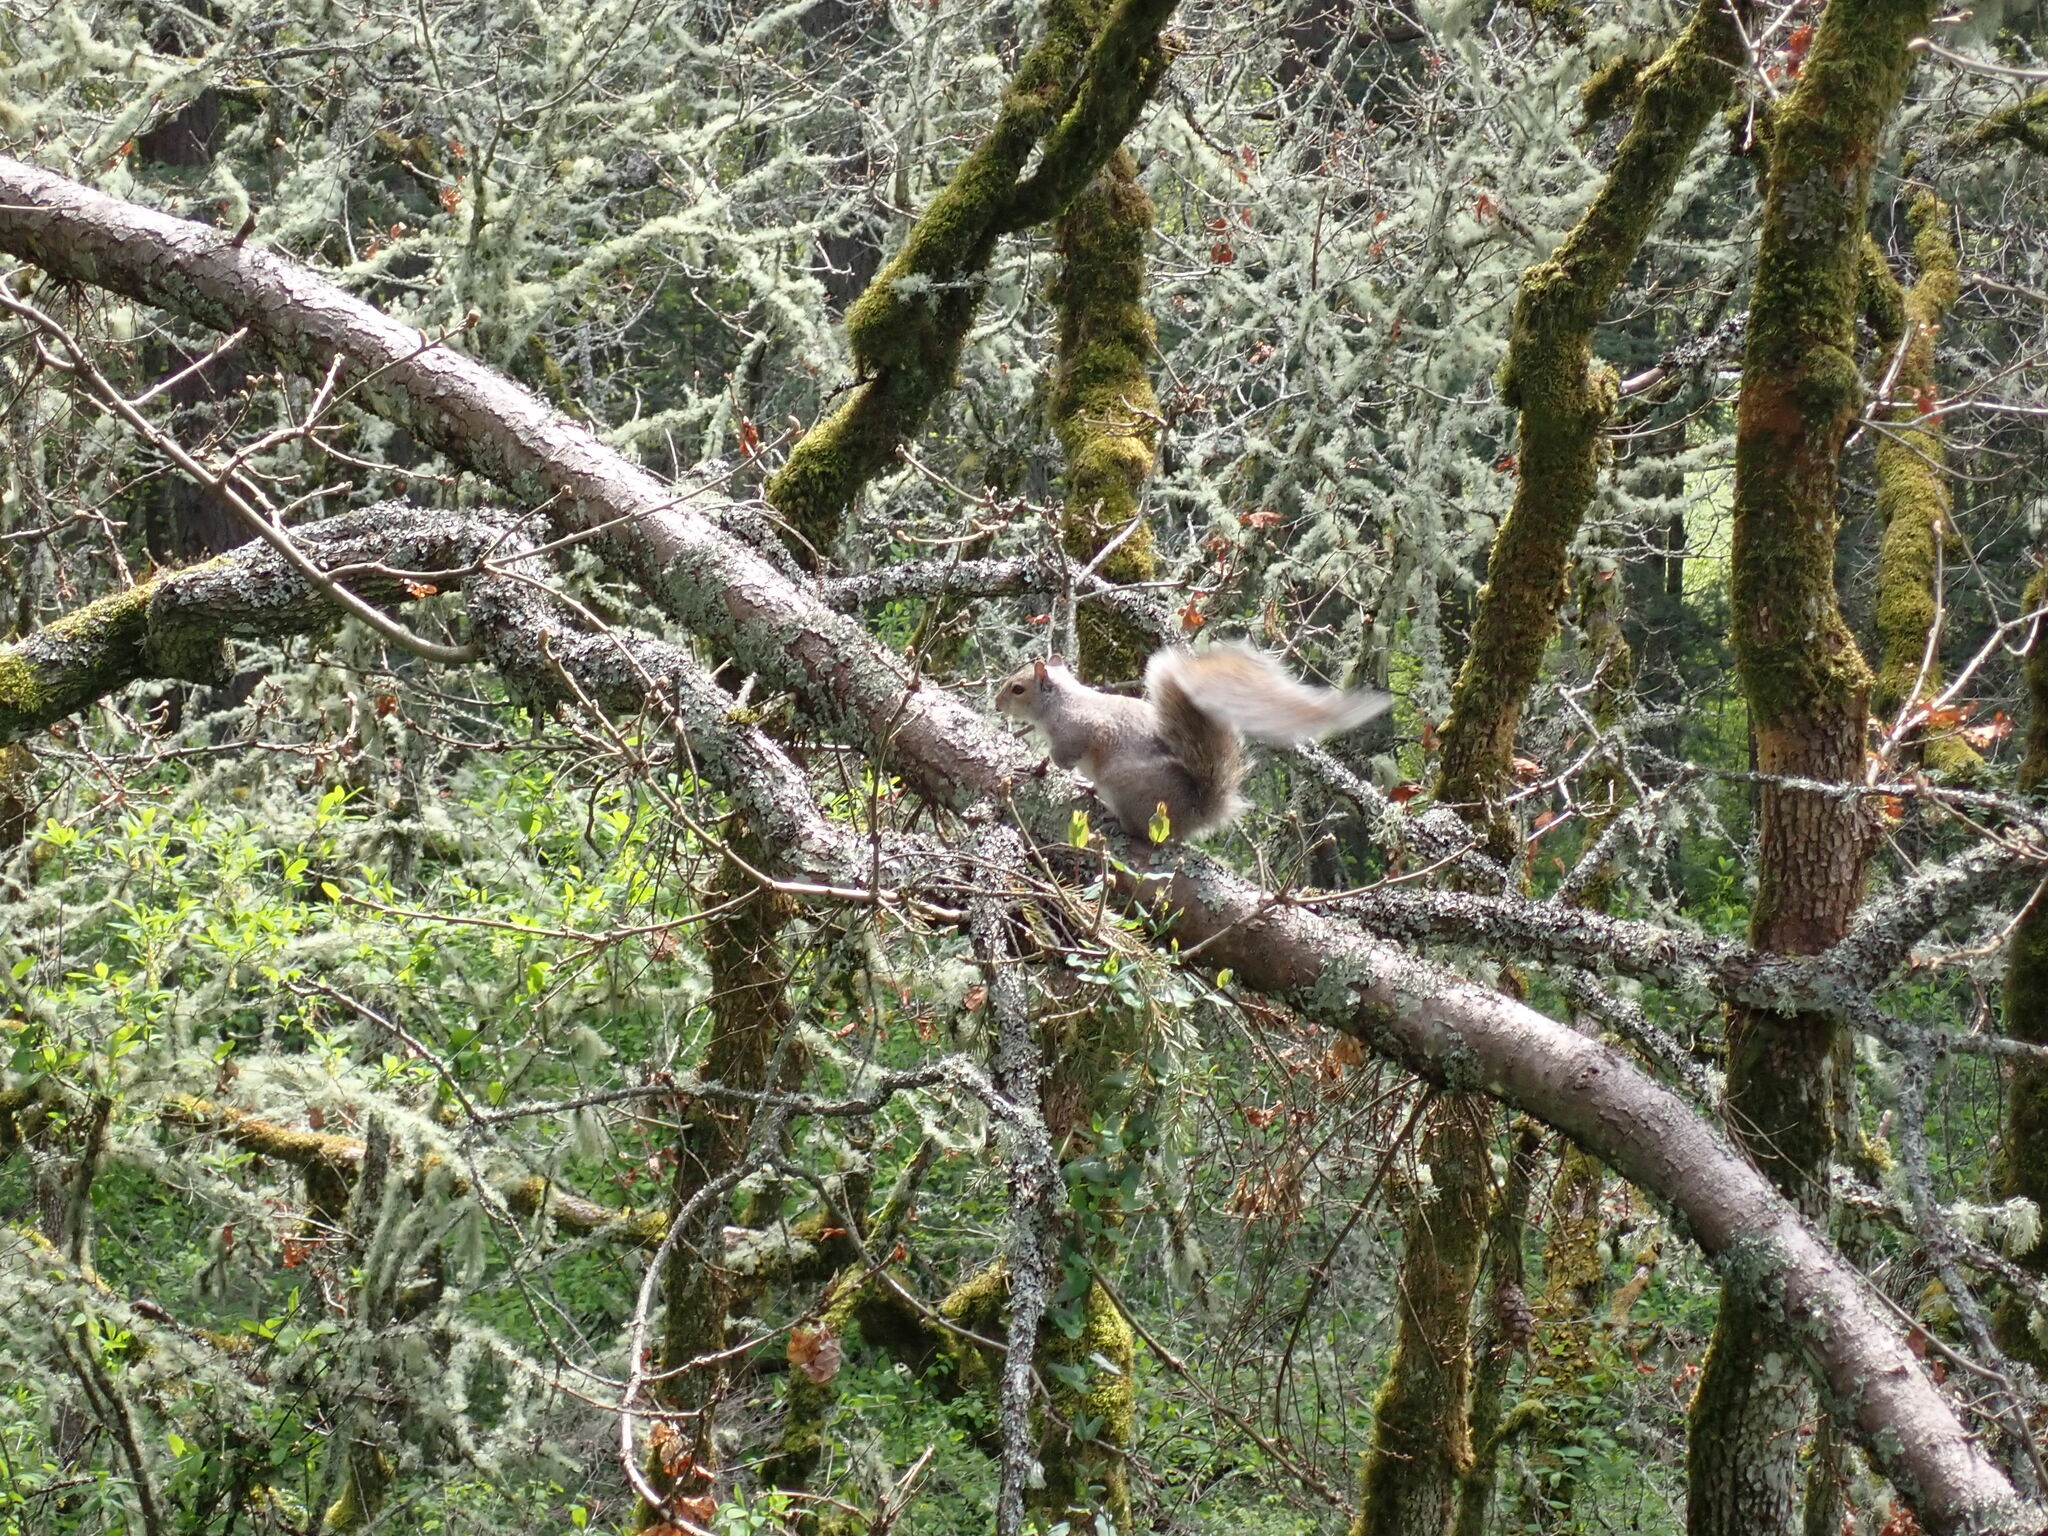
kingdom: Animalia
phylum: Chordata
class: Mammalia
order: Rodentia
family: Sciuridae
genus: Sciurus
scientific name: Sciurus carolinensis
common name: Eastern gray squirrel
